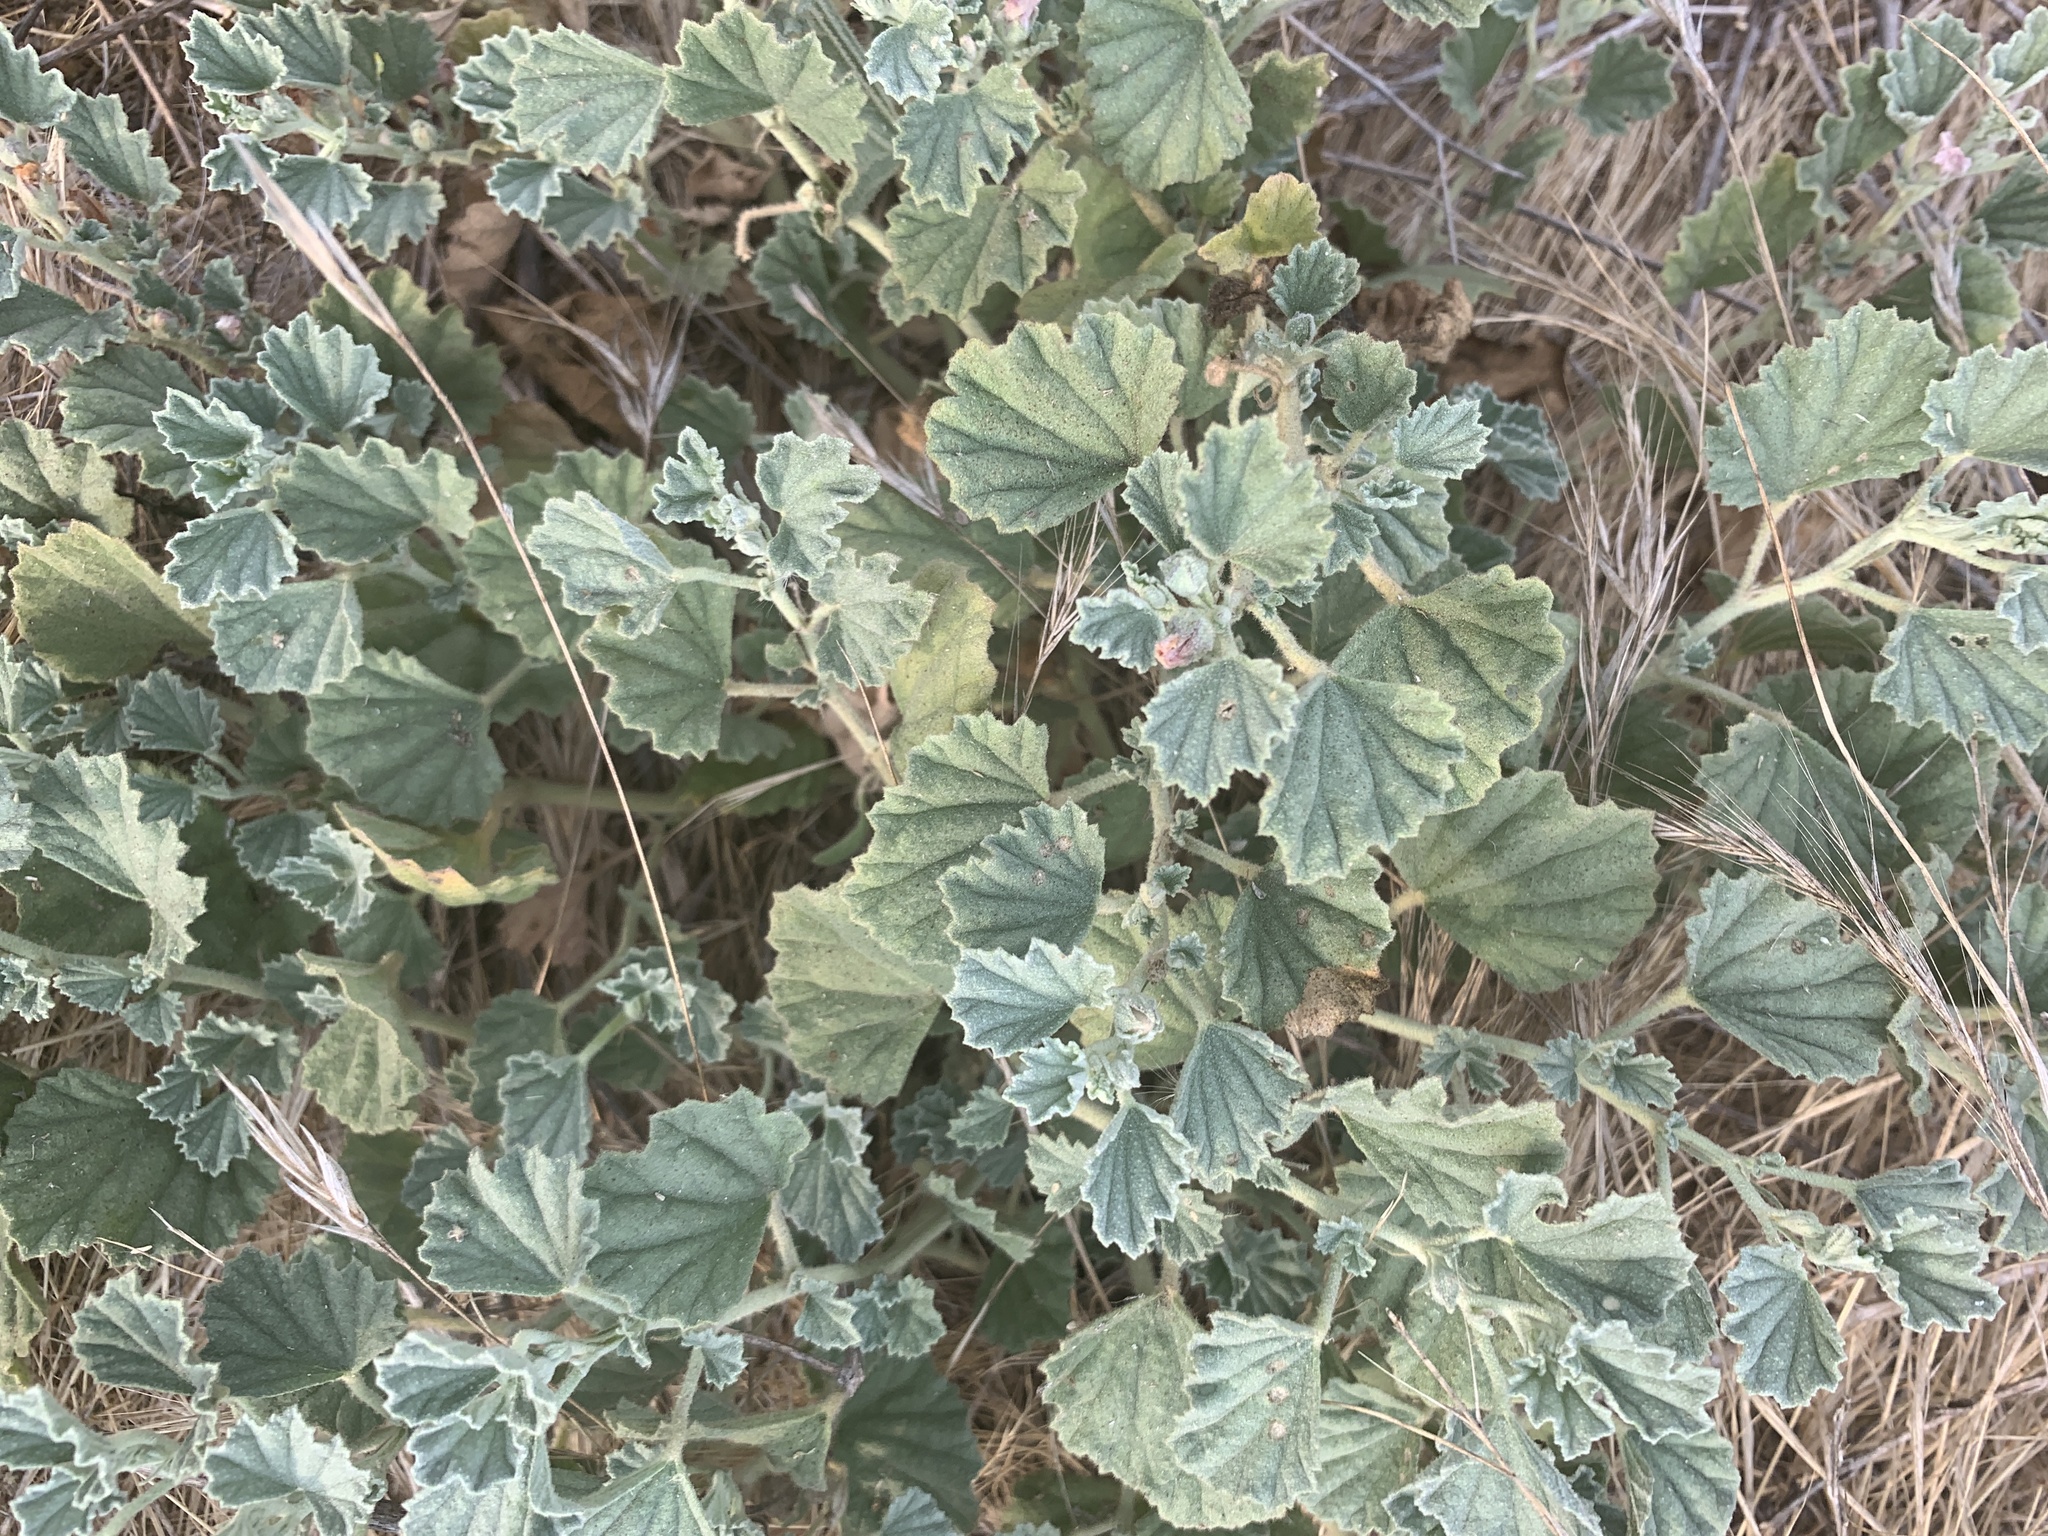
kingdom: Plantae
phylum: Tracheophyta
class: Magnoliopsida
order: Malvales
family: Malvaceae
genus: Malvella
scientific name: Malvella leprosa
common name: Alkali-mallow
